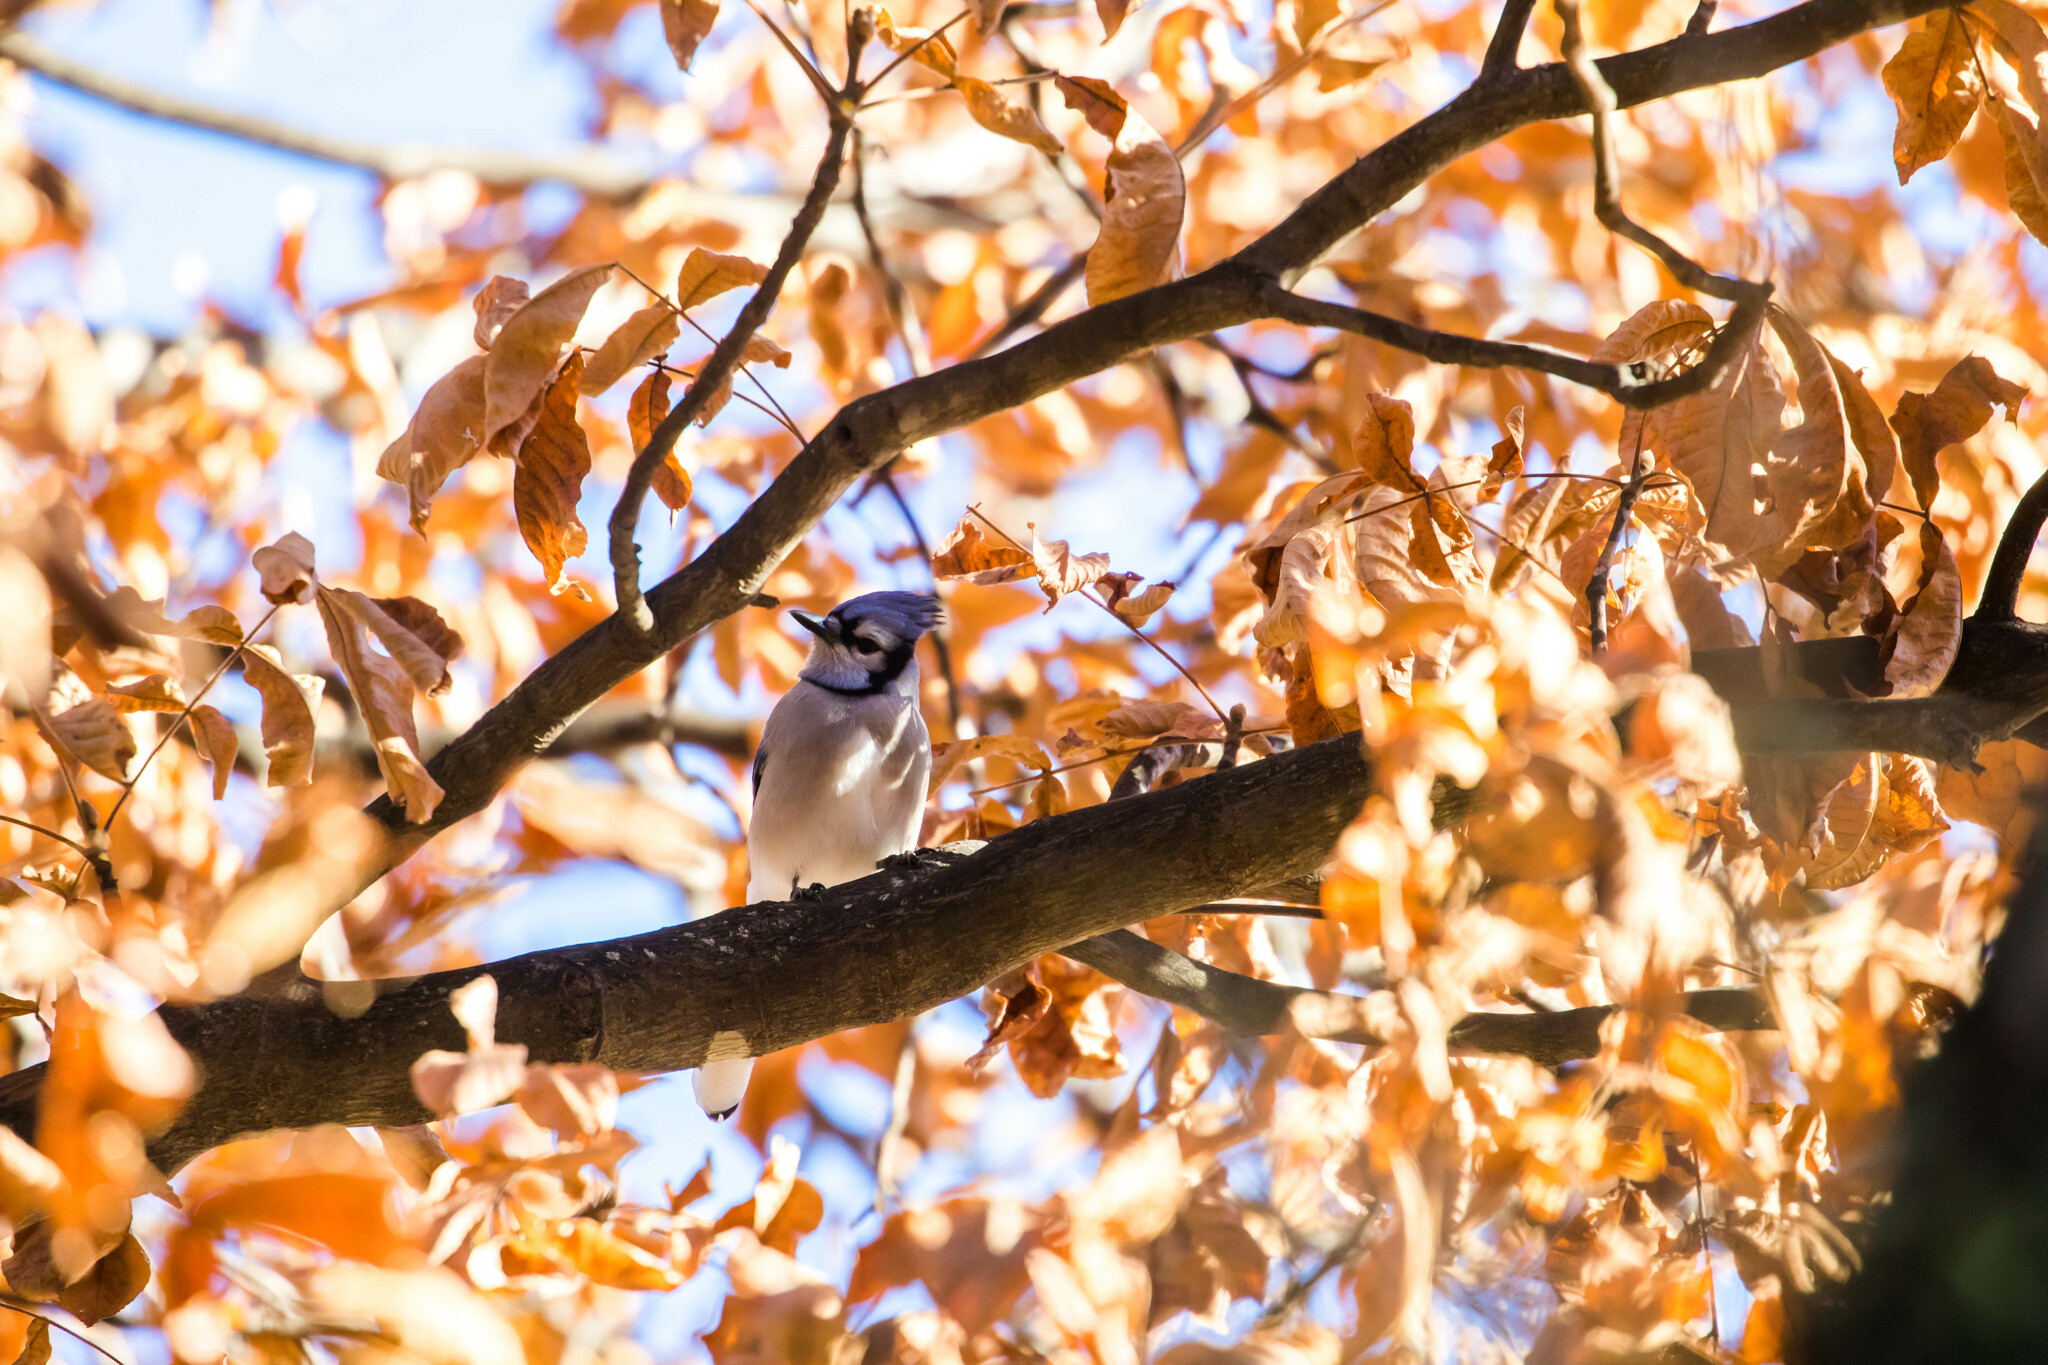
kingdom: Animalia
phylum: Chordata
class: Aves
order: Passeriformes
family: Corvidae
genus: Cyanocitta
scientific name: Cyanocitta cristata
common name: Blue jay
